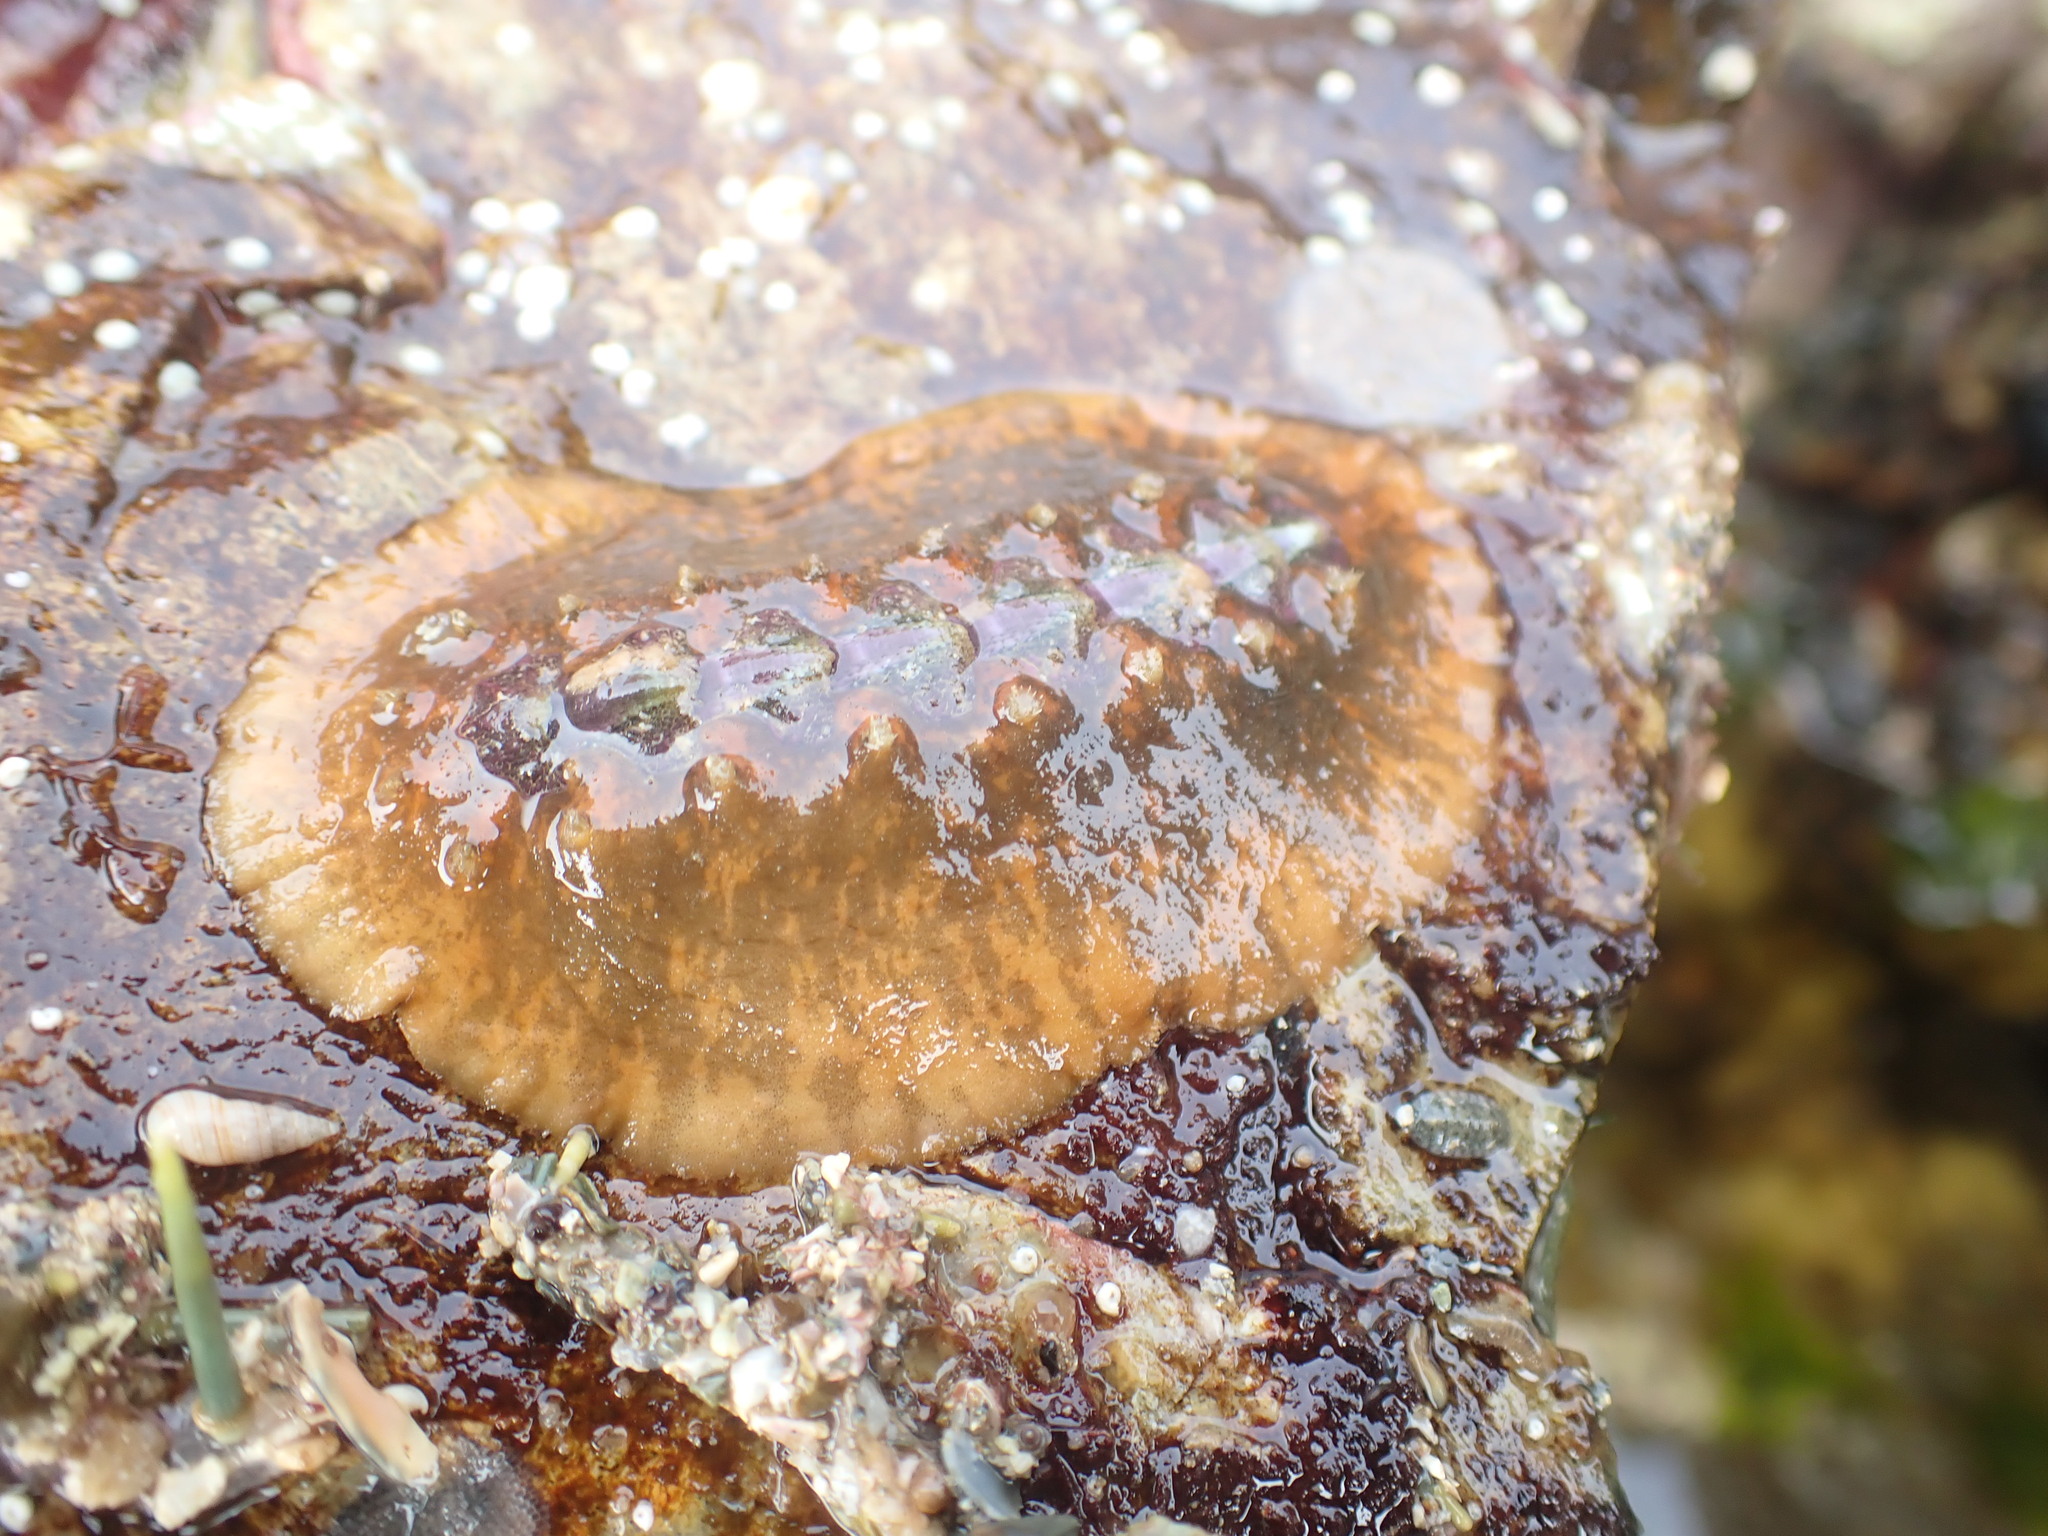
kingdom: Animalia
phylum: Mollusca
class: Polyplacophora
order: Chitonida
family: Acanthochitonidae
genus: Notoplax
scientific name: Notoplax violacea
